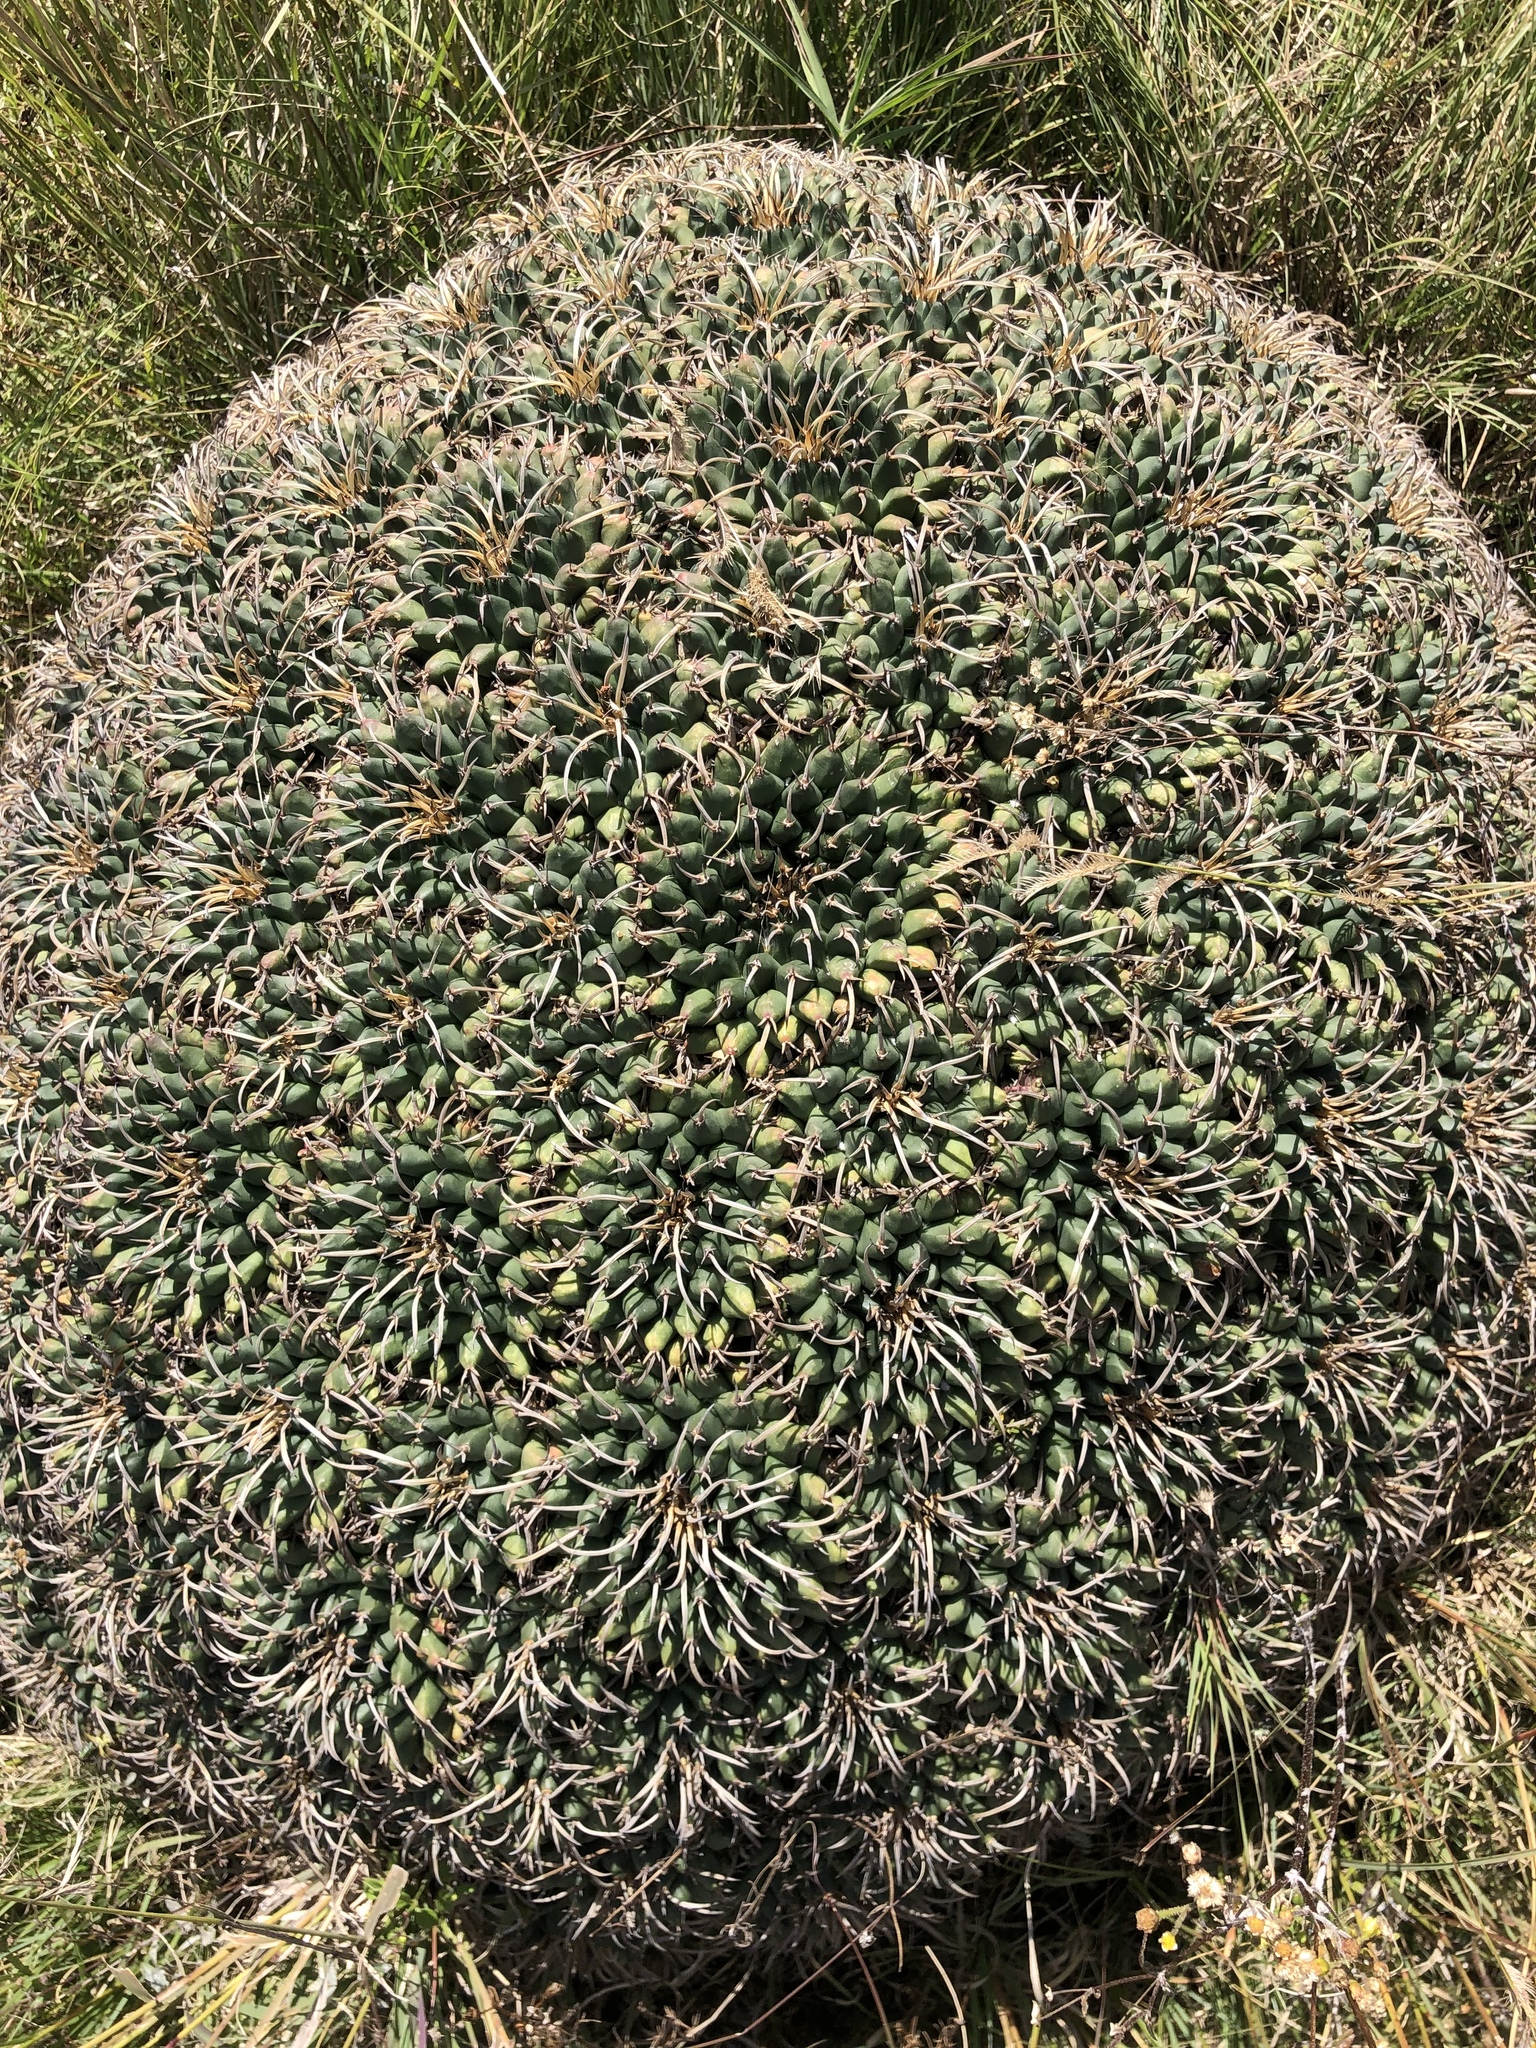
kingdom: Plantae
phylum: Tracheophyta
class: Magnoliopsida
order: Caryophyllales
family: Cactaceae
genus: Mammillaria
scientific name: Mammillaria magnimamma
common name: Mexican pincushion
